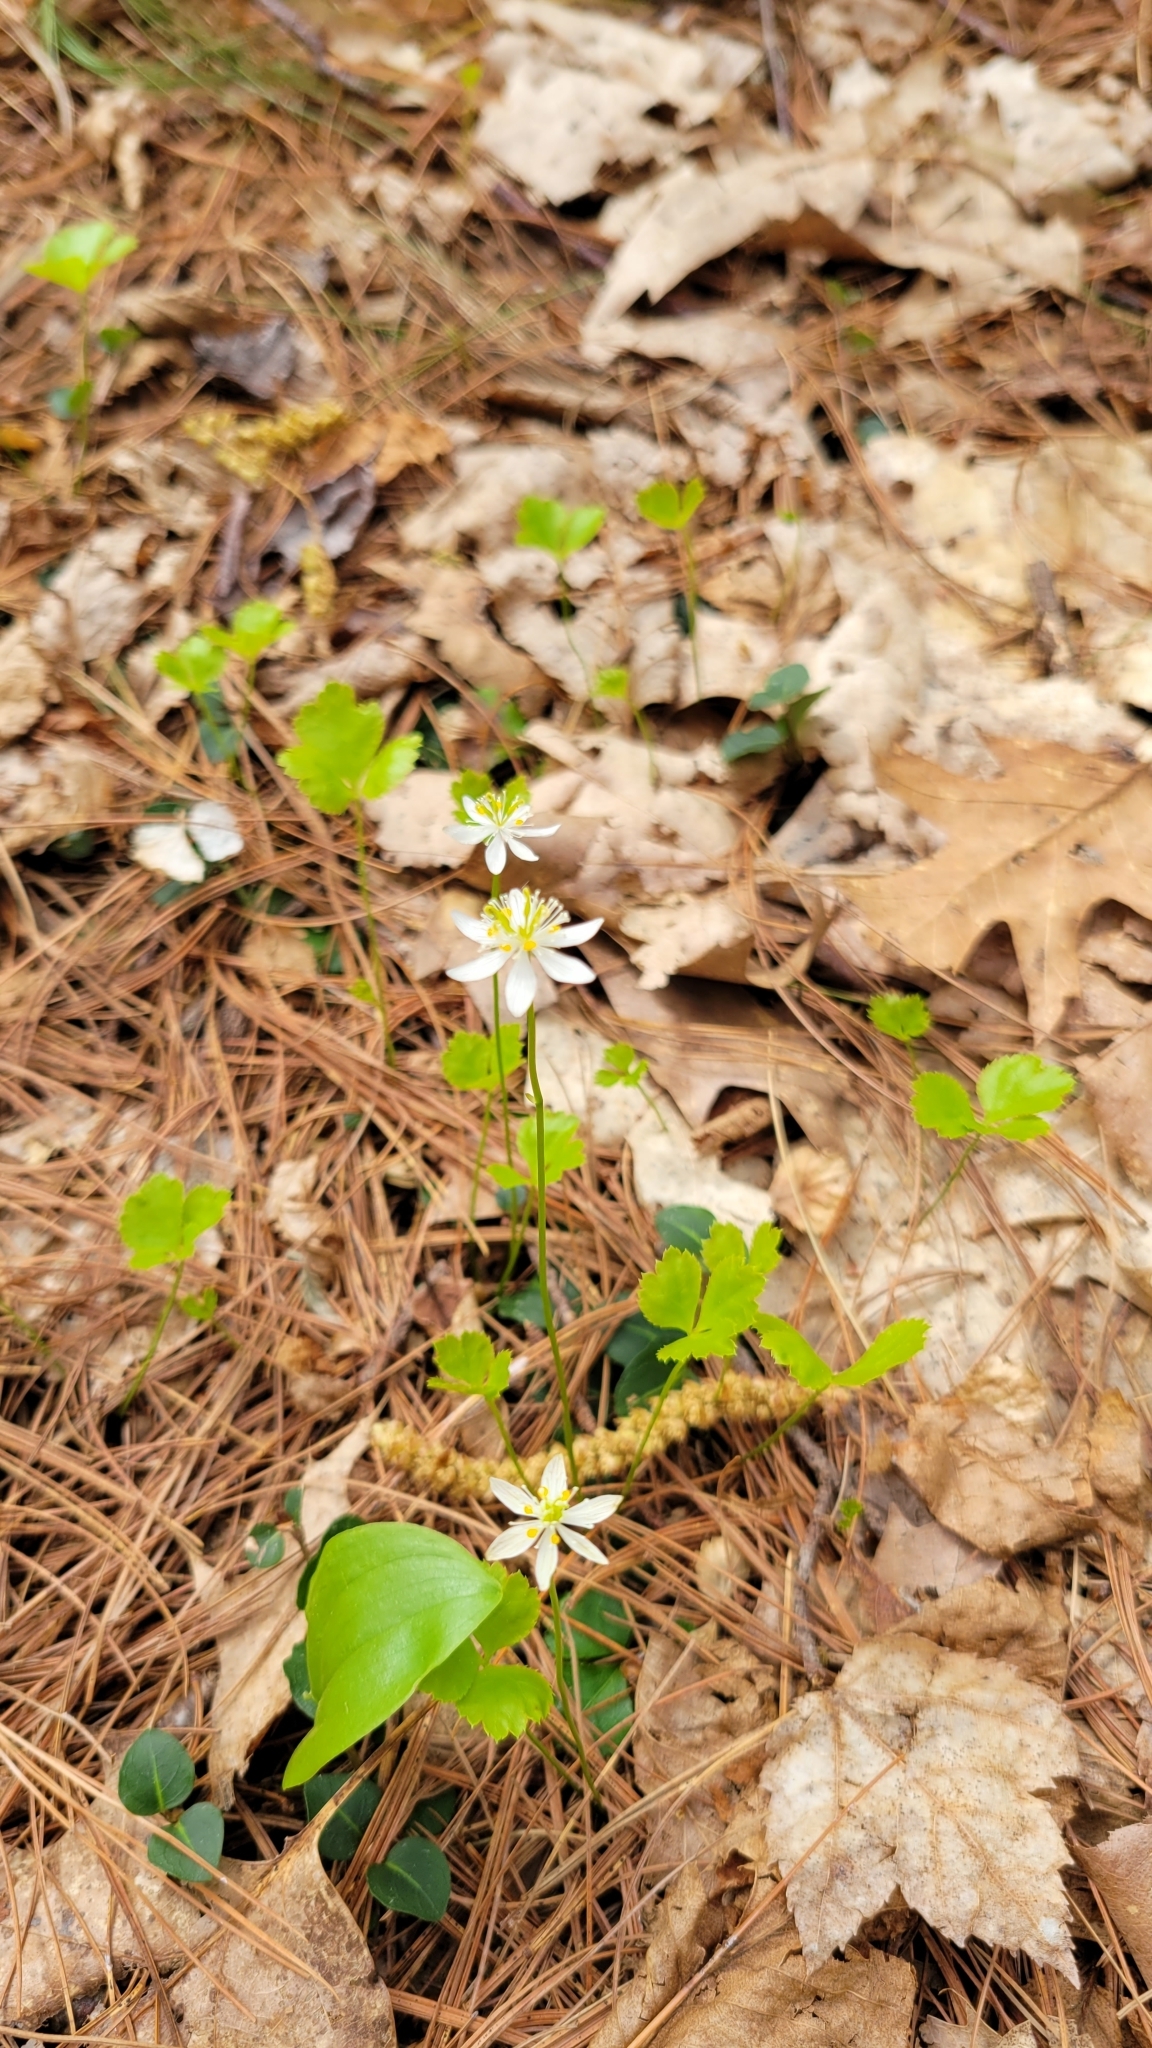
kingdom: Plantae
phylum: Tracheophyta
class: Magnoliopsida
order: Ranunculales
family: Ranunculaceae
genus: Coptis
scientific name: Coptis trifolia
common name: Canker-root
